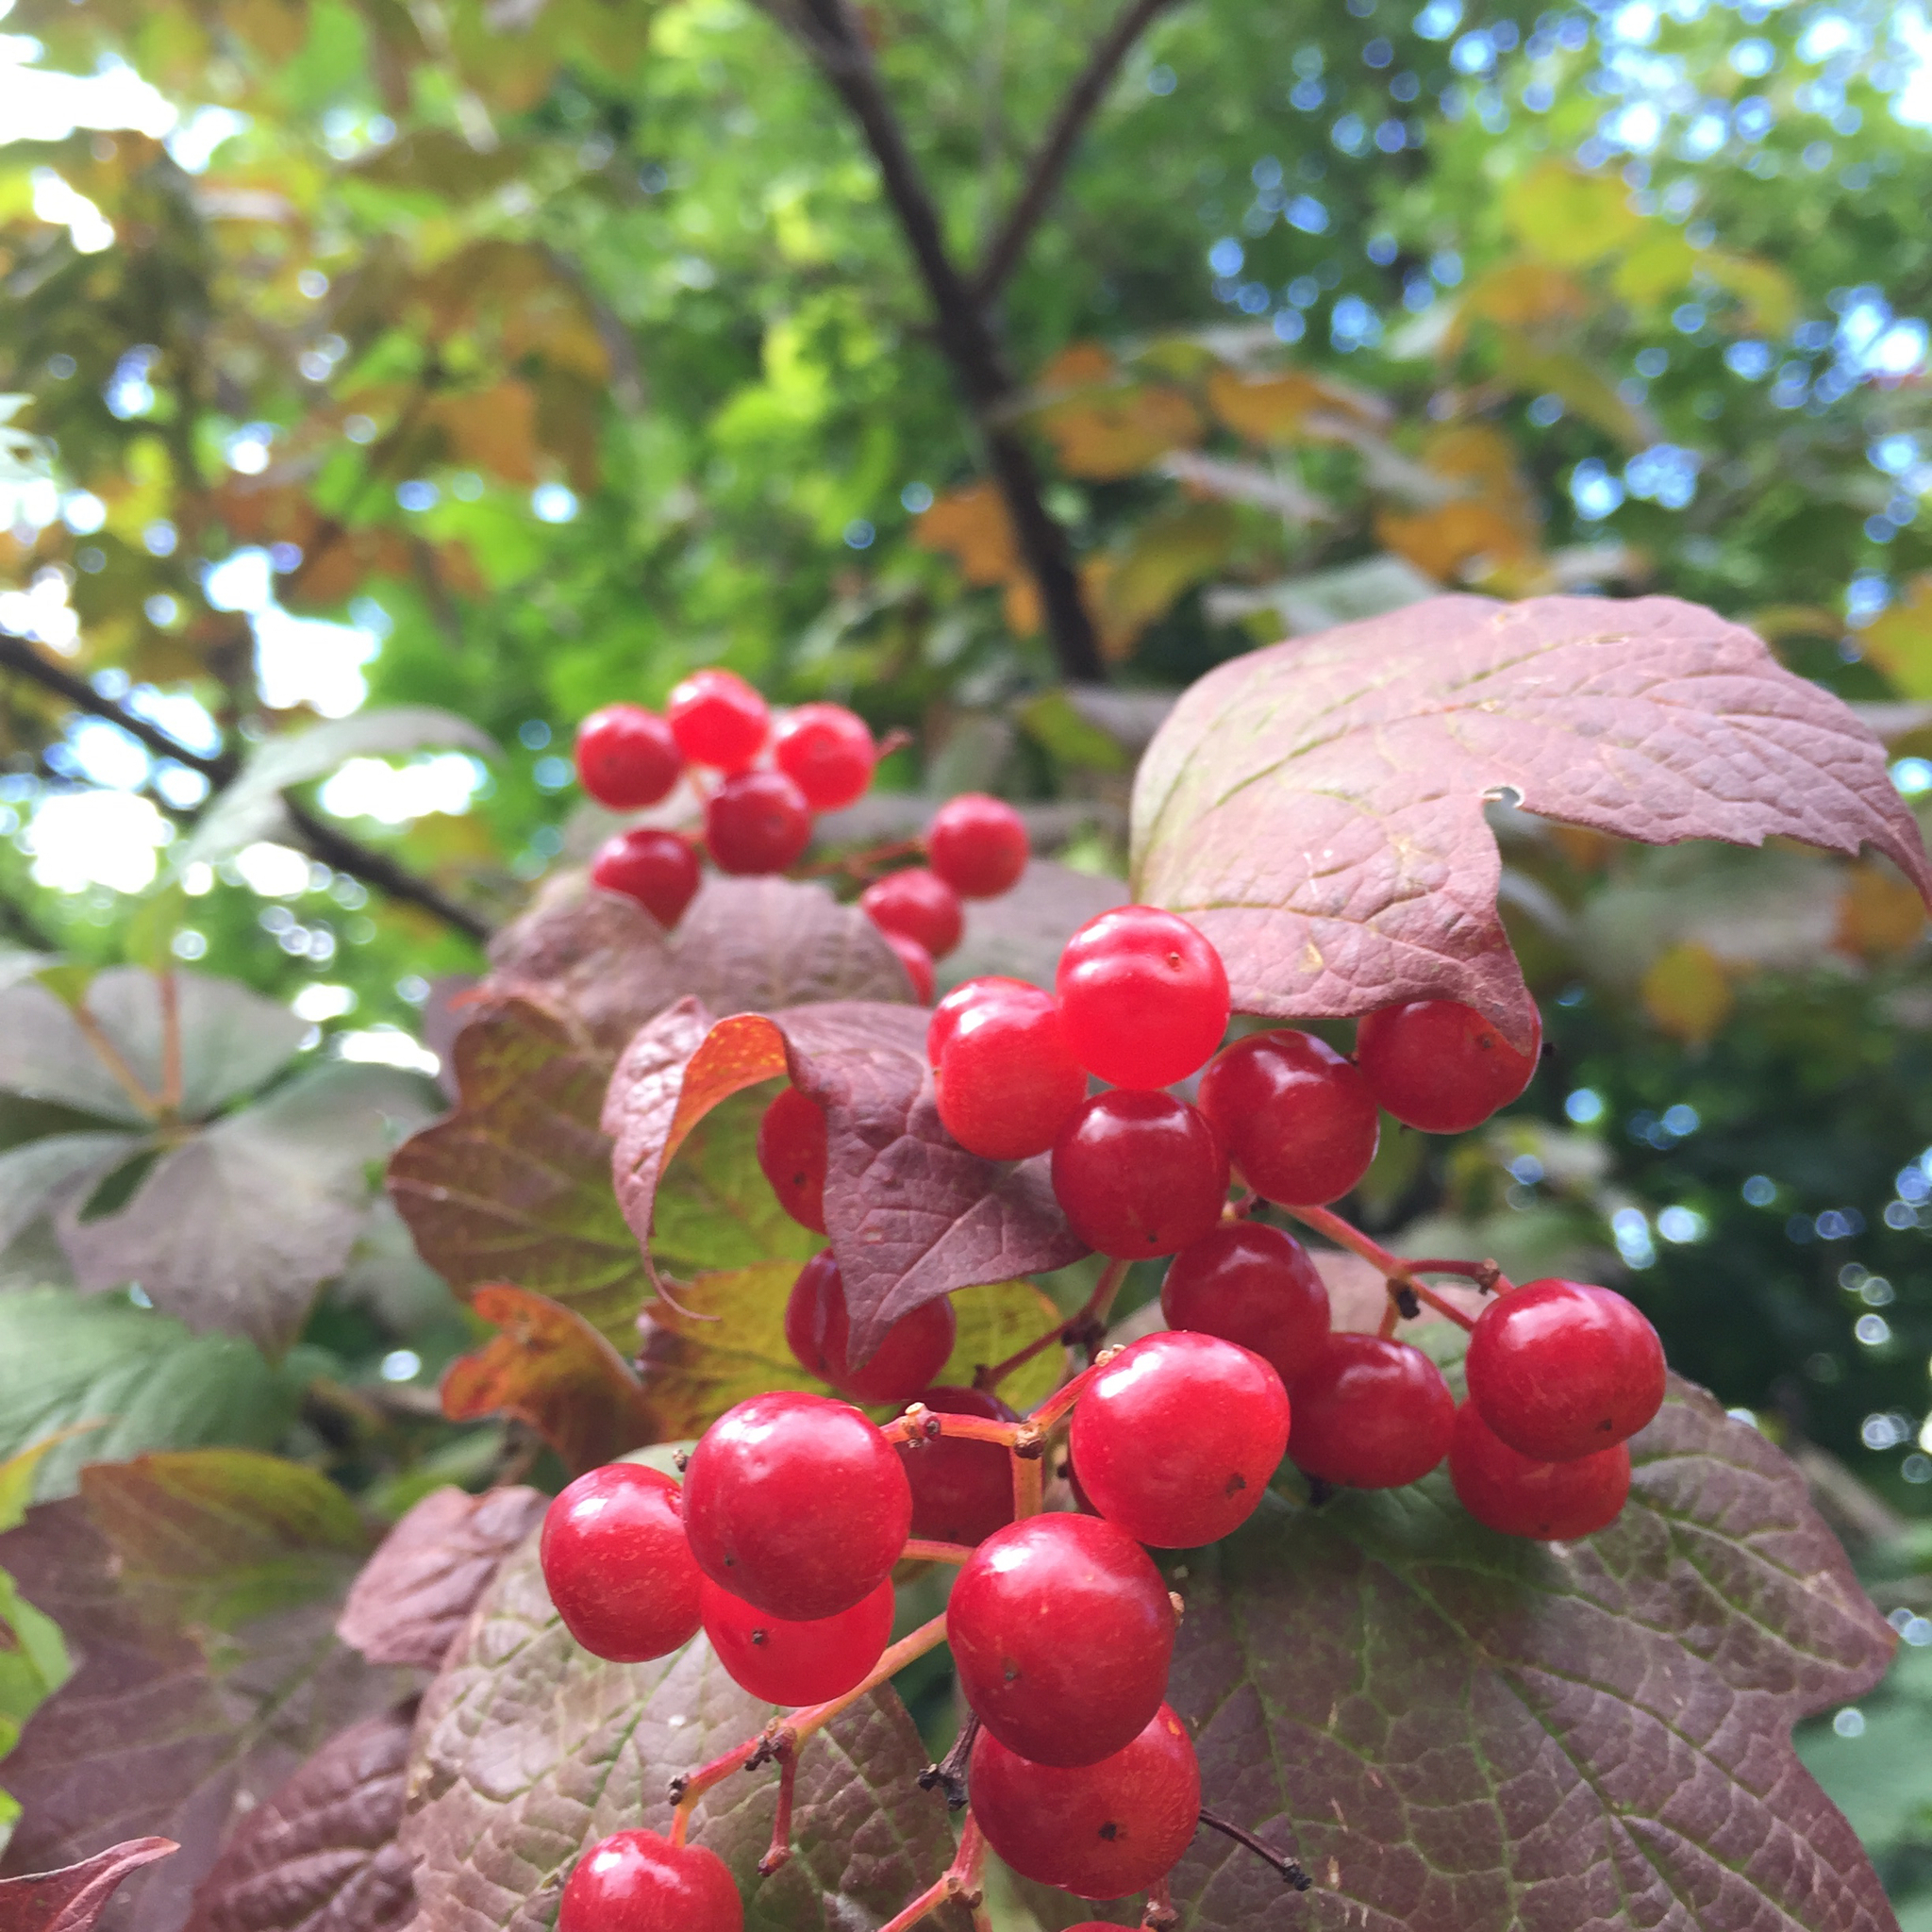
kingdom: Plantae
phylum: Tracheophyta
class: Magnoliopsida
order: Dipsacales
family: Viburnaceae
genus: Viburnum
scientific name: Viburnum opulus
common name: Guelder-rose
